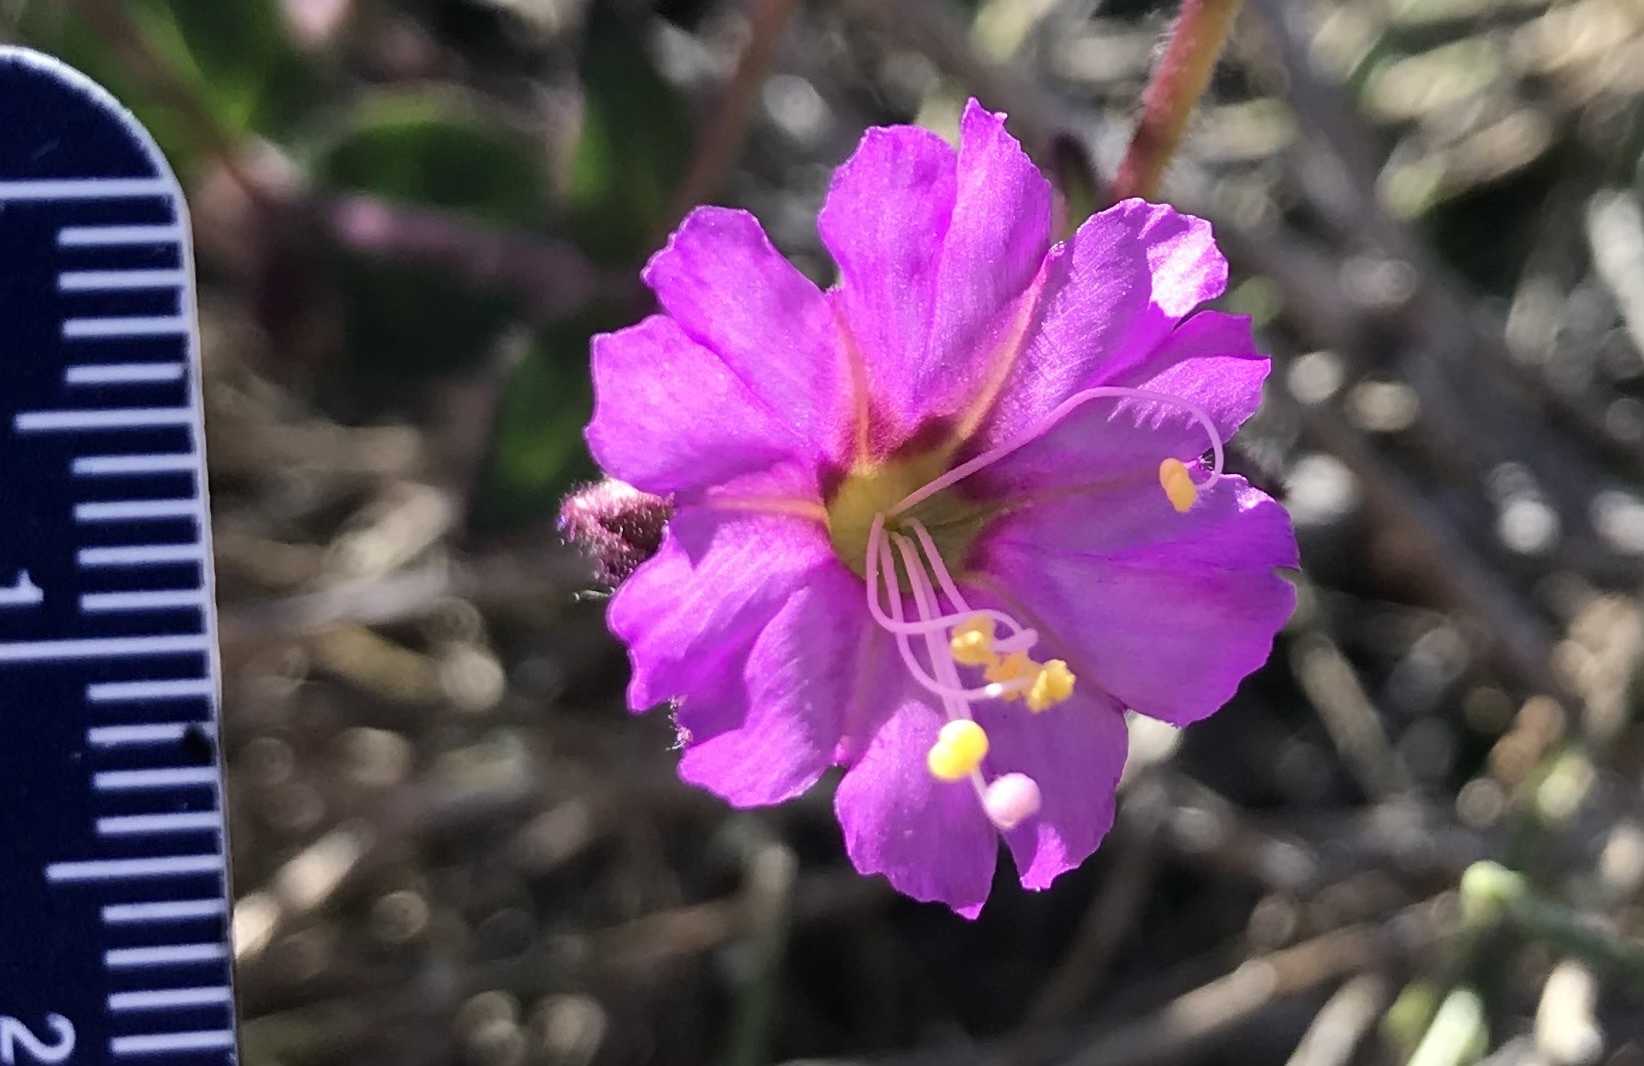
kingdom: Plantae
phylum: Tracheophyta
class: Magnoliopsida
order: Caryophyllales
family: Nyctaginaceae
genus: Mirabilis
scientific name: Mirabilis laevis
